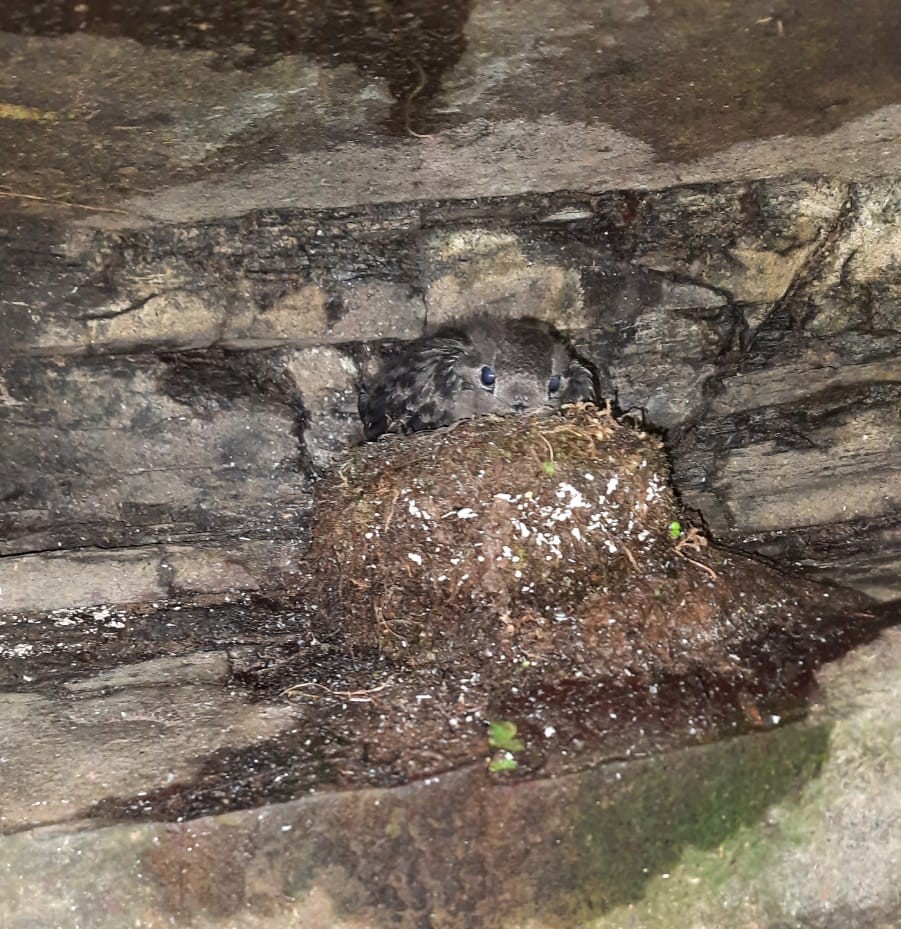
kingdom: Animalia
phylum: Chordata
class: Aves
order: Apodiformes
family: Apodidae
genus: Cypseloides
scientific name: Cypseloides senex
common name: Great dusky swift
